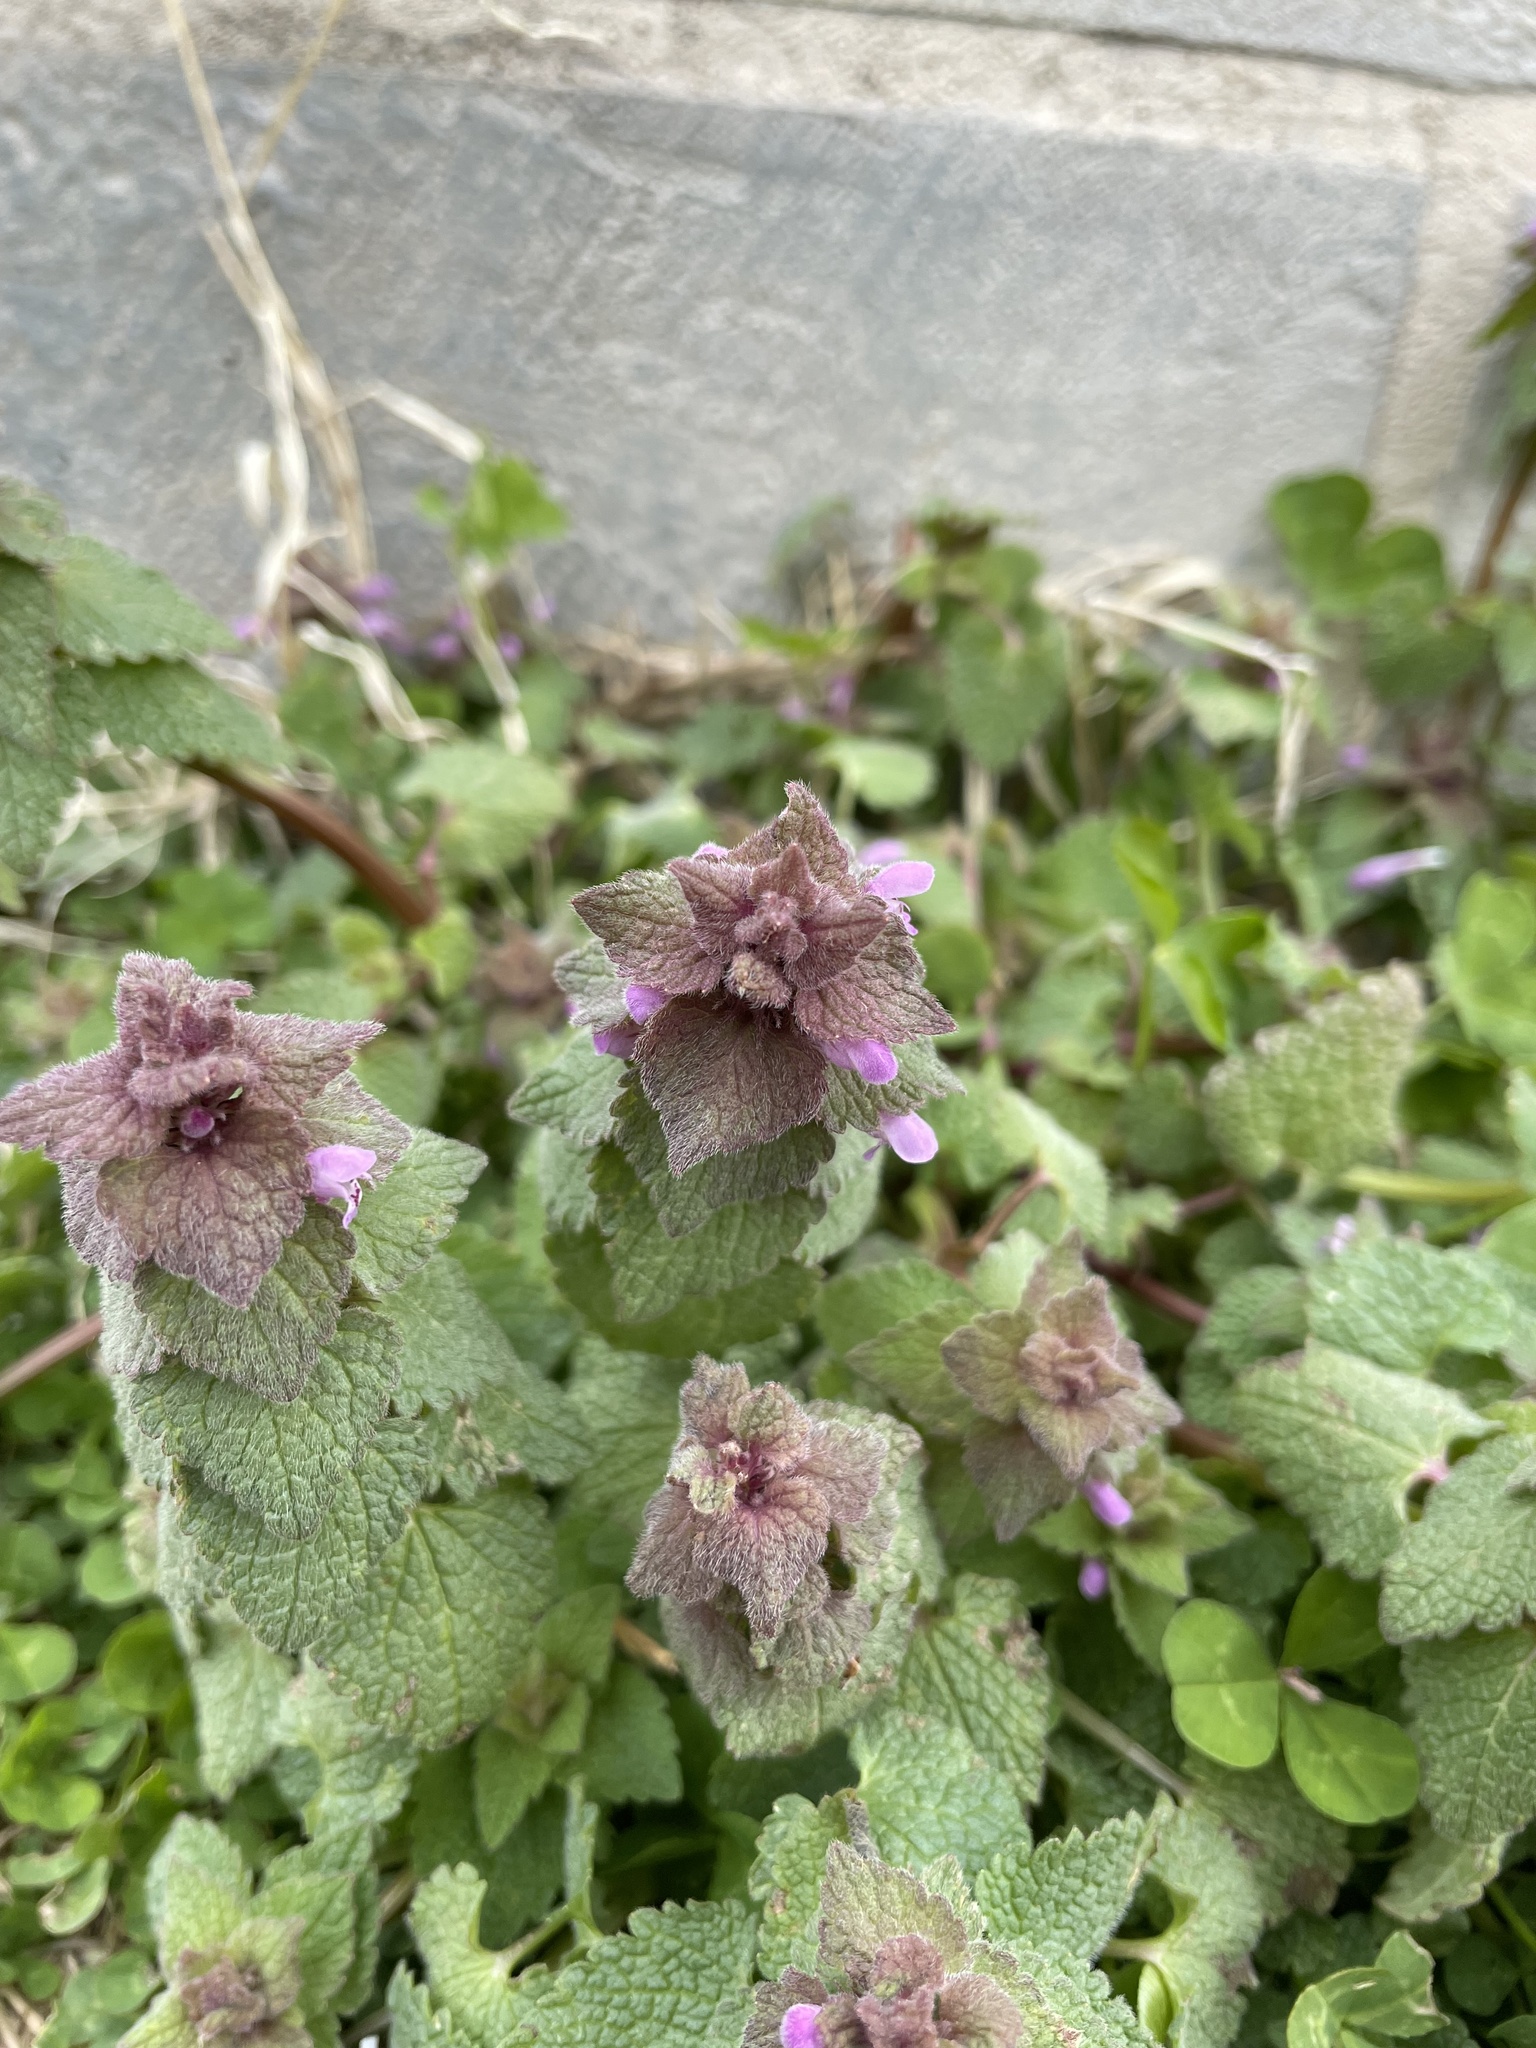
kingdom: Plantae
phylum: Tracheophyta
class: Magnoliopsida
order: Lamiales
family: Lamiaceae
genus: Lamium
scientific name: Lamium purpureum
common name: Red dead-nettle
